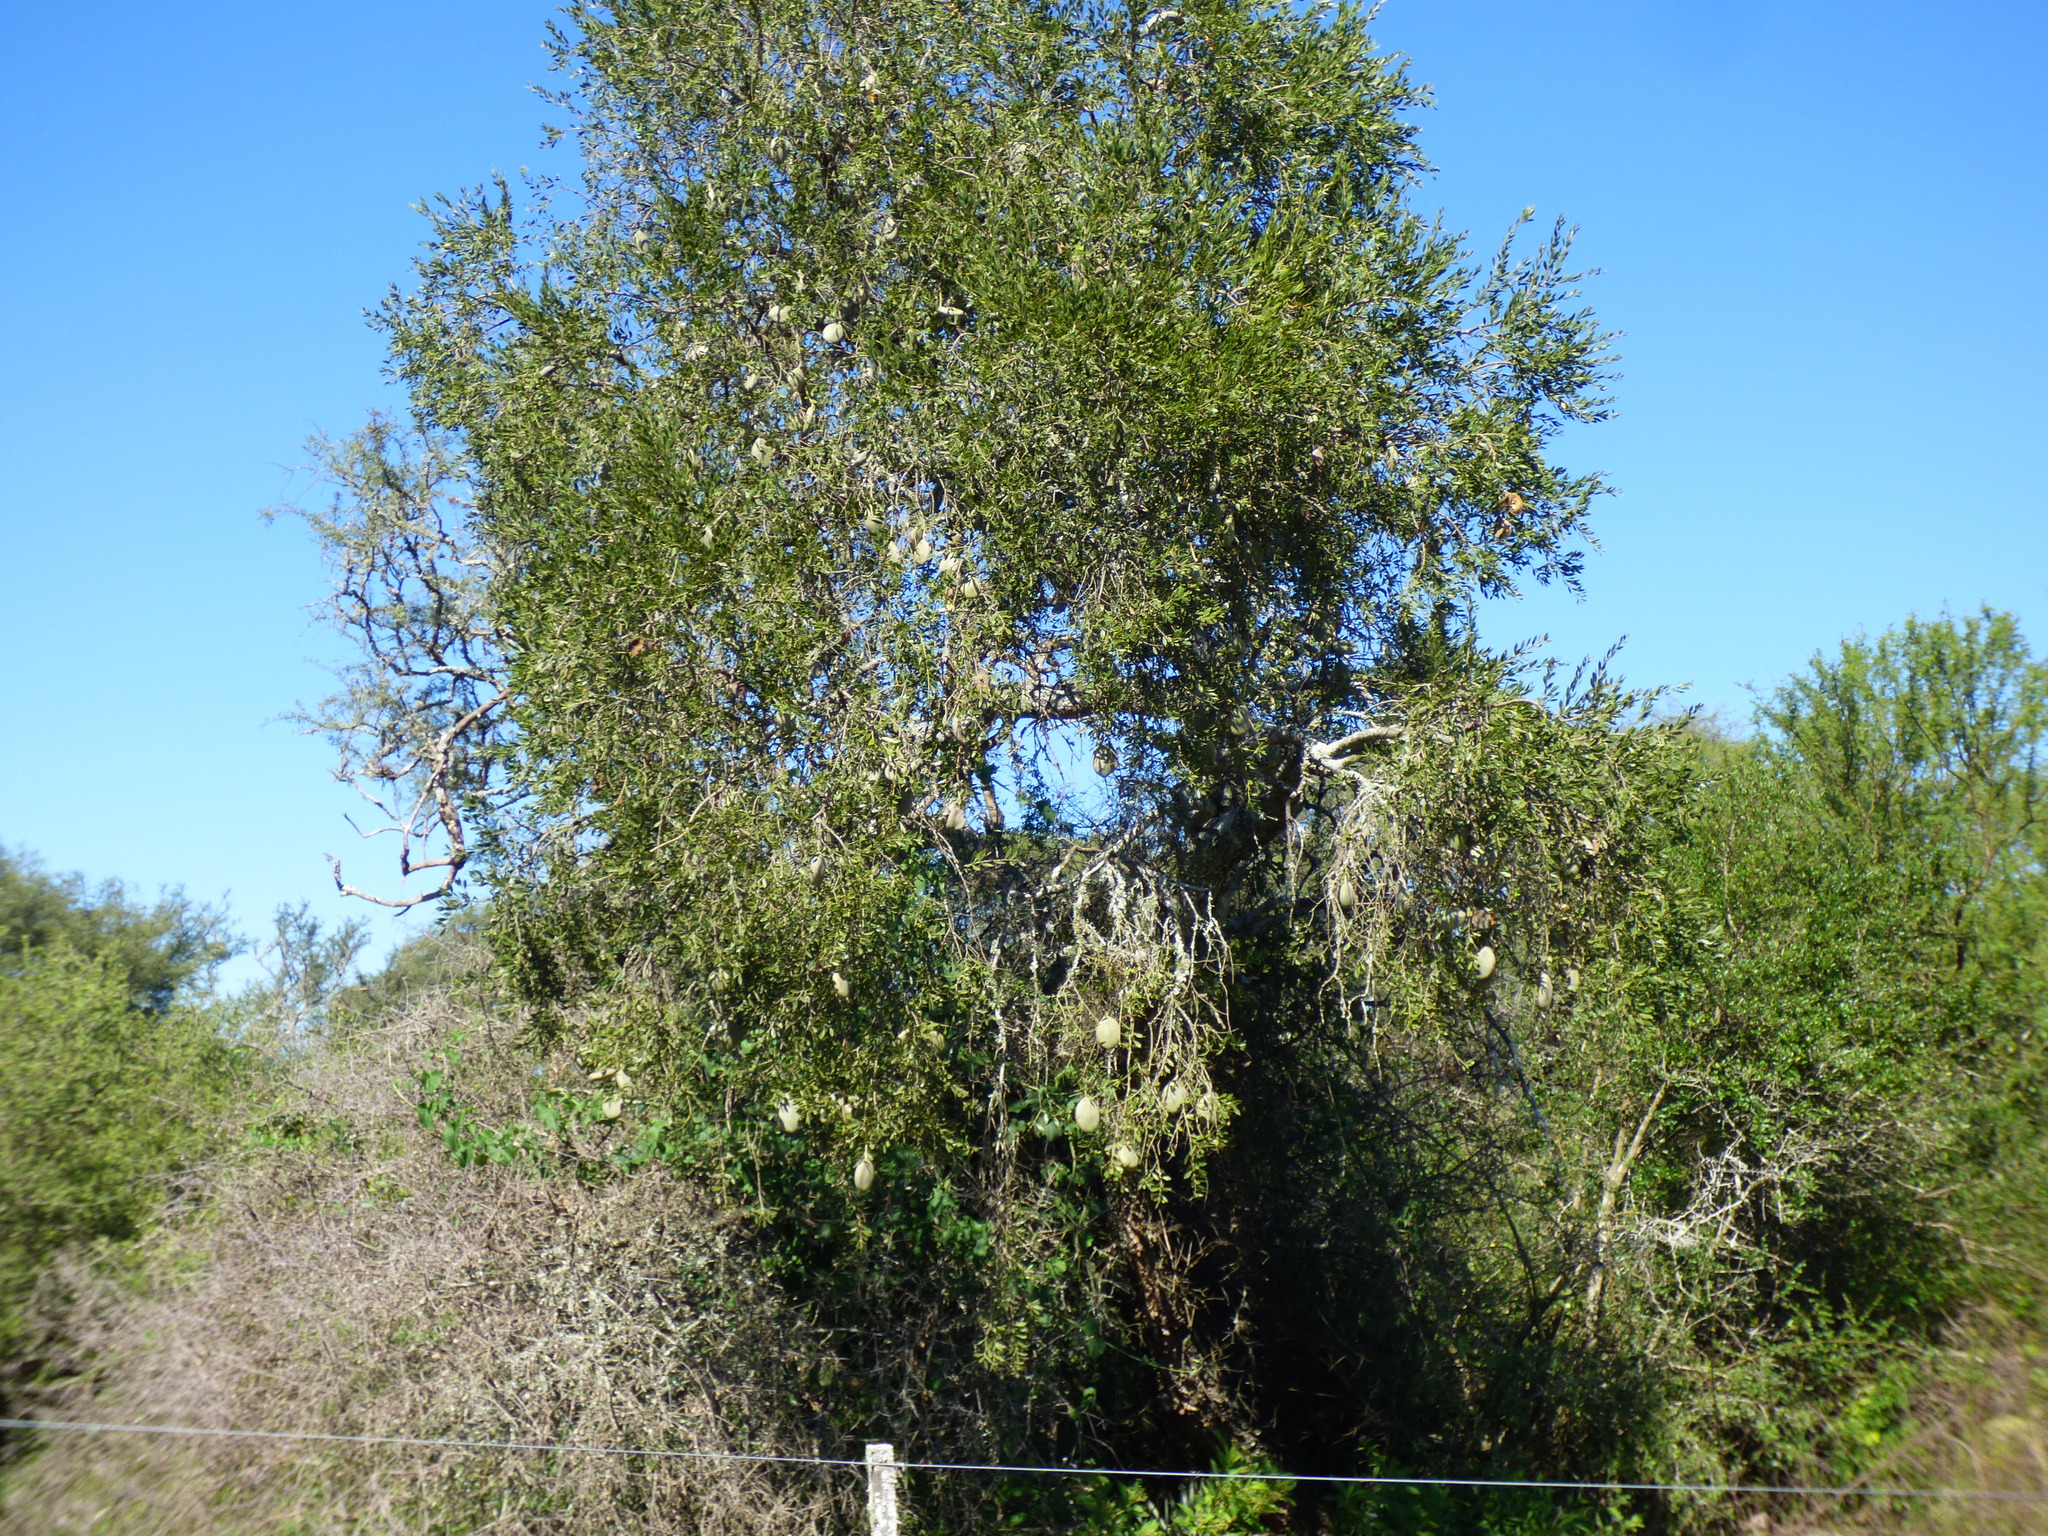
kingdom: Plantae
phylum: Tracheophyta
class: Magnoliopsida
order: Gentianales
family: Apocynaceae
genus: Aspidosperma
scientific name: Aspidosperma quebracho-blanco
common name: White quebracho
